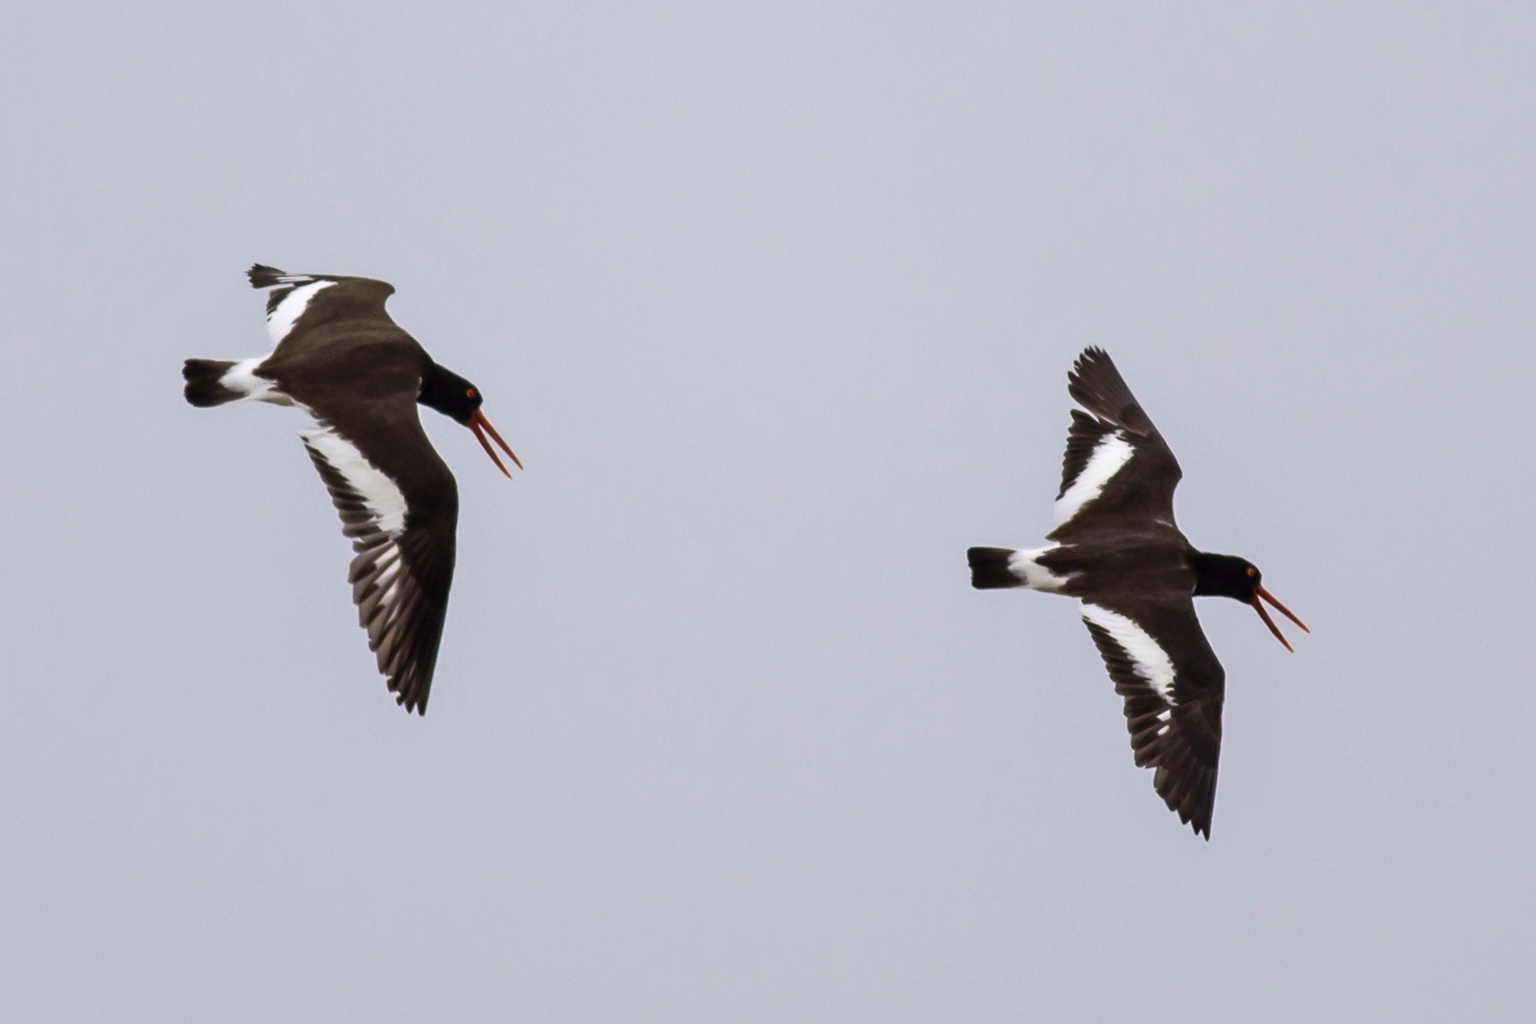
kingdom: Animalia
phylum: Chordata
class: Aves
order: Charadriiformes
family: Haematopodidae
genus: Haematopus
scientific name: Haematopus palliatus
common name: American oystercatcher
